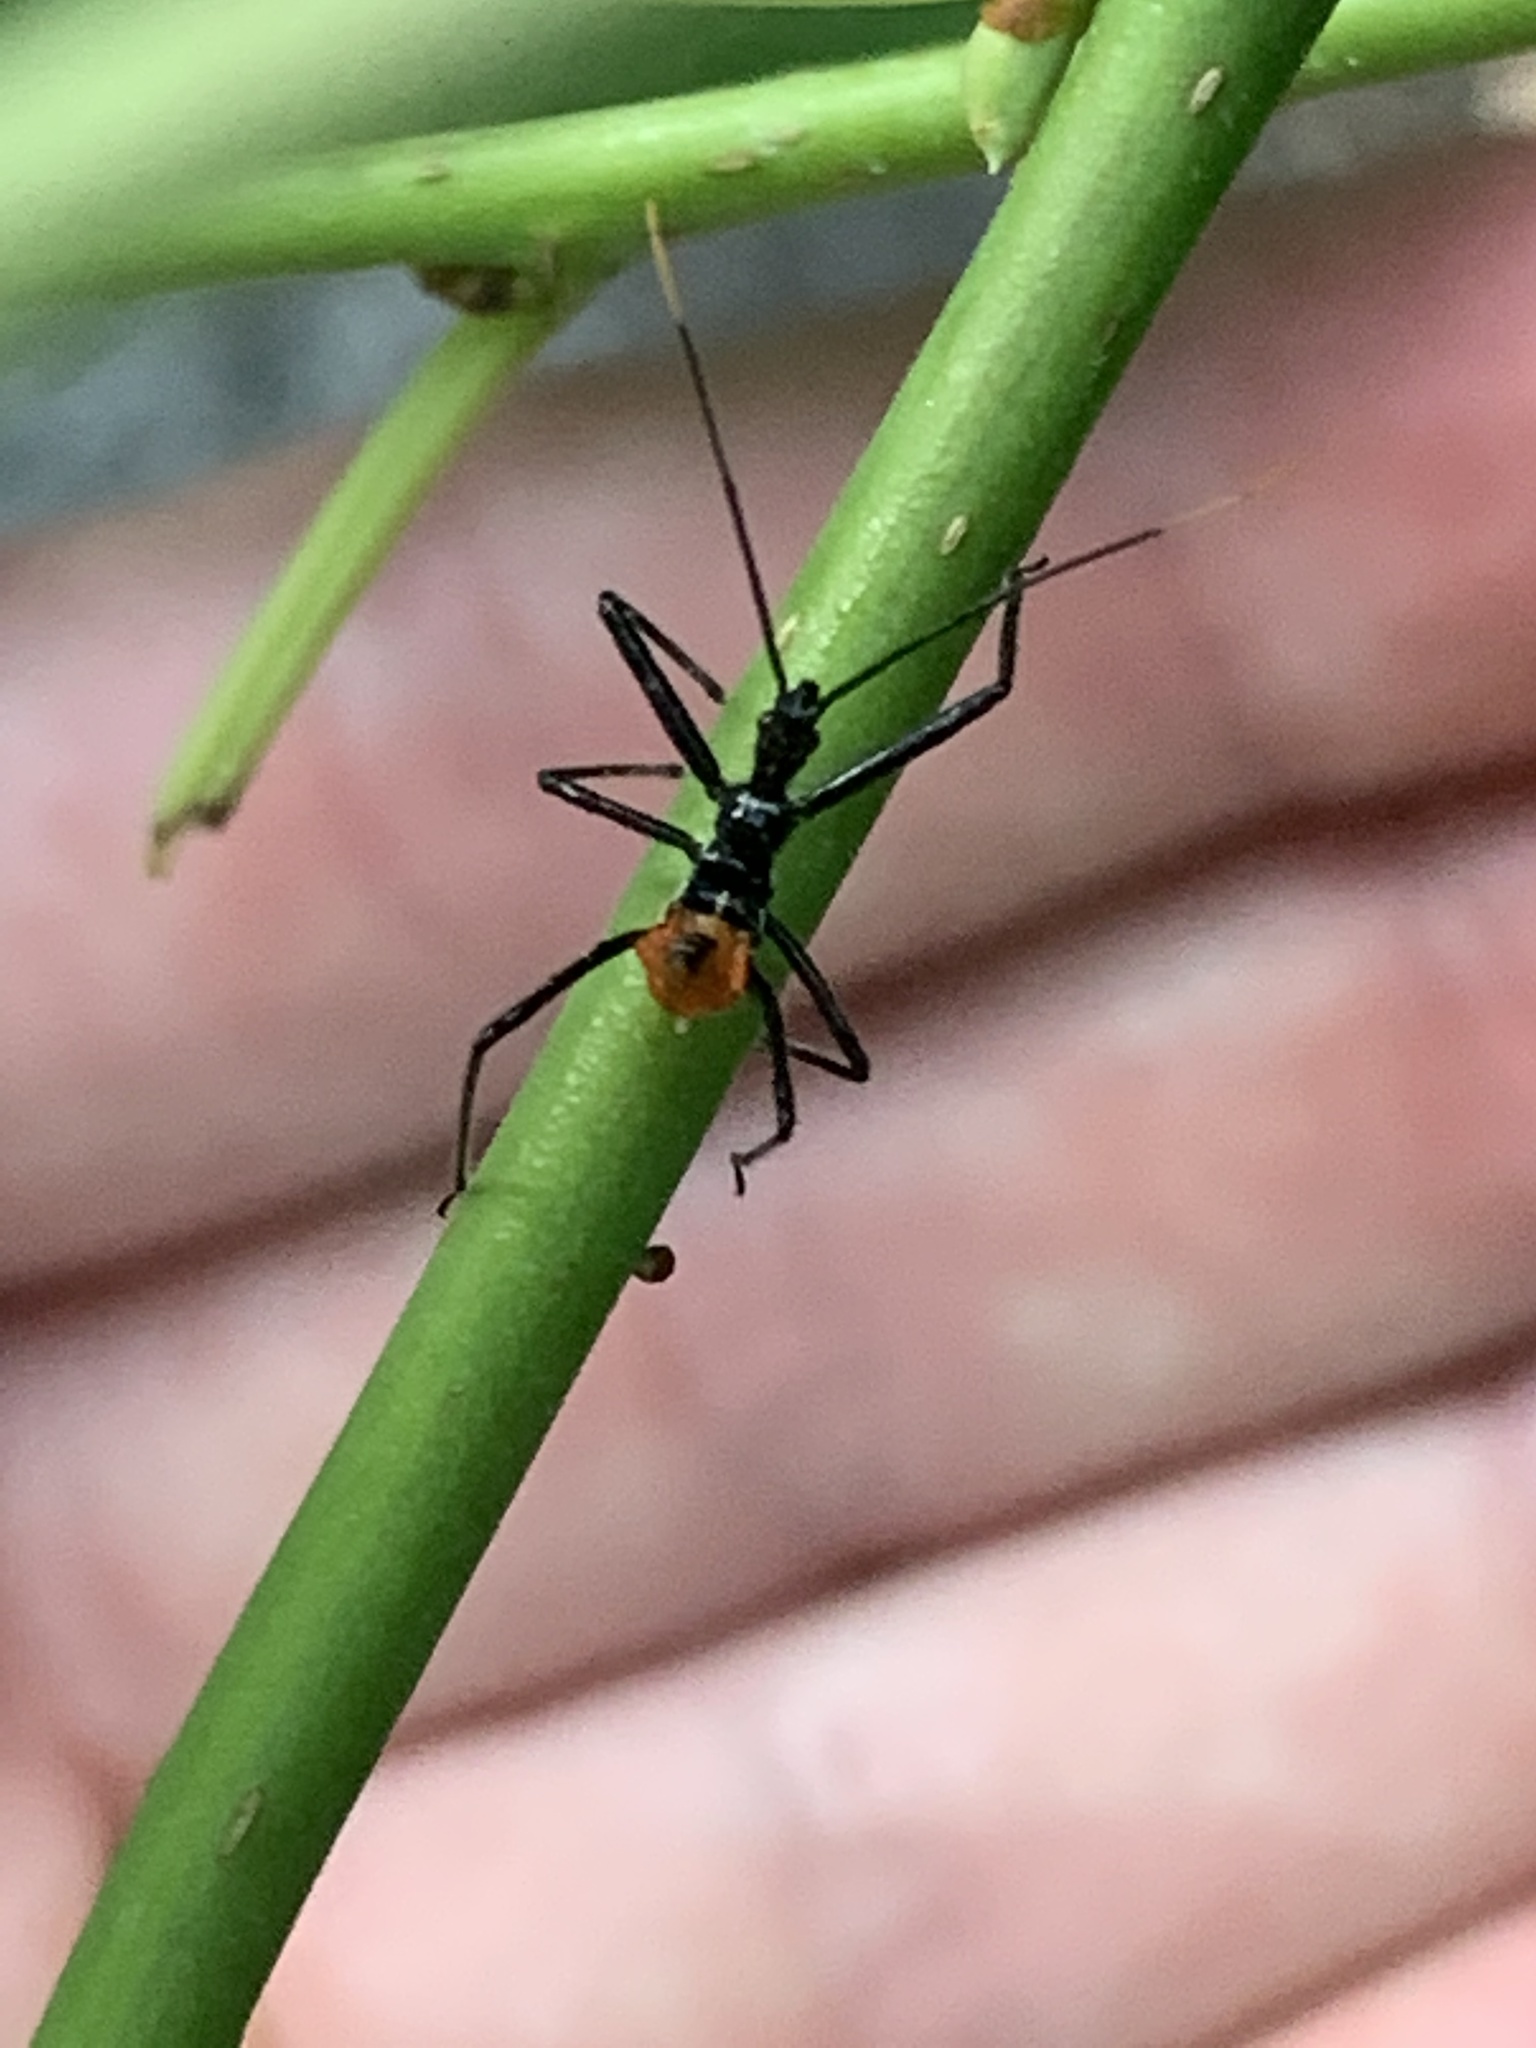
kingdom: Animalia
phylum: Arthropoda
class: Insecta
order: Hemiptera
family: Reduviidae
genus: Arilus
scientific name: Arilus cristatus
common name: North american wheel bug
